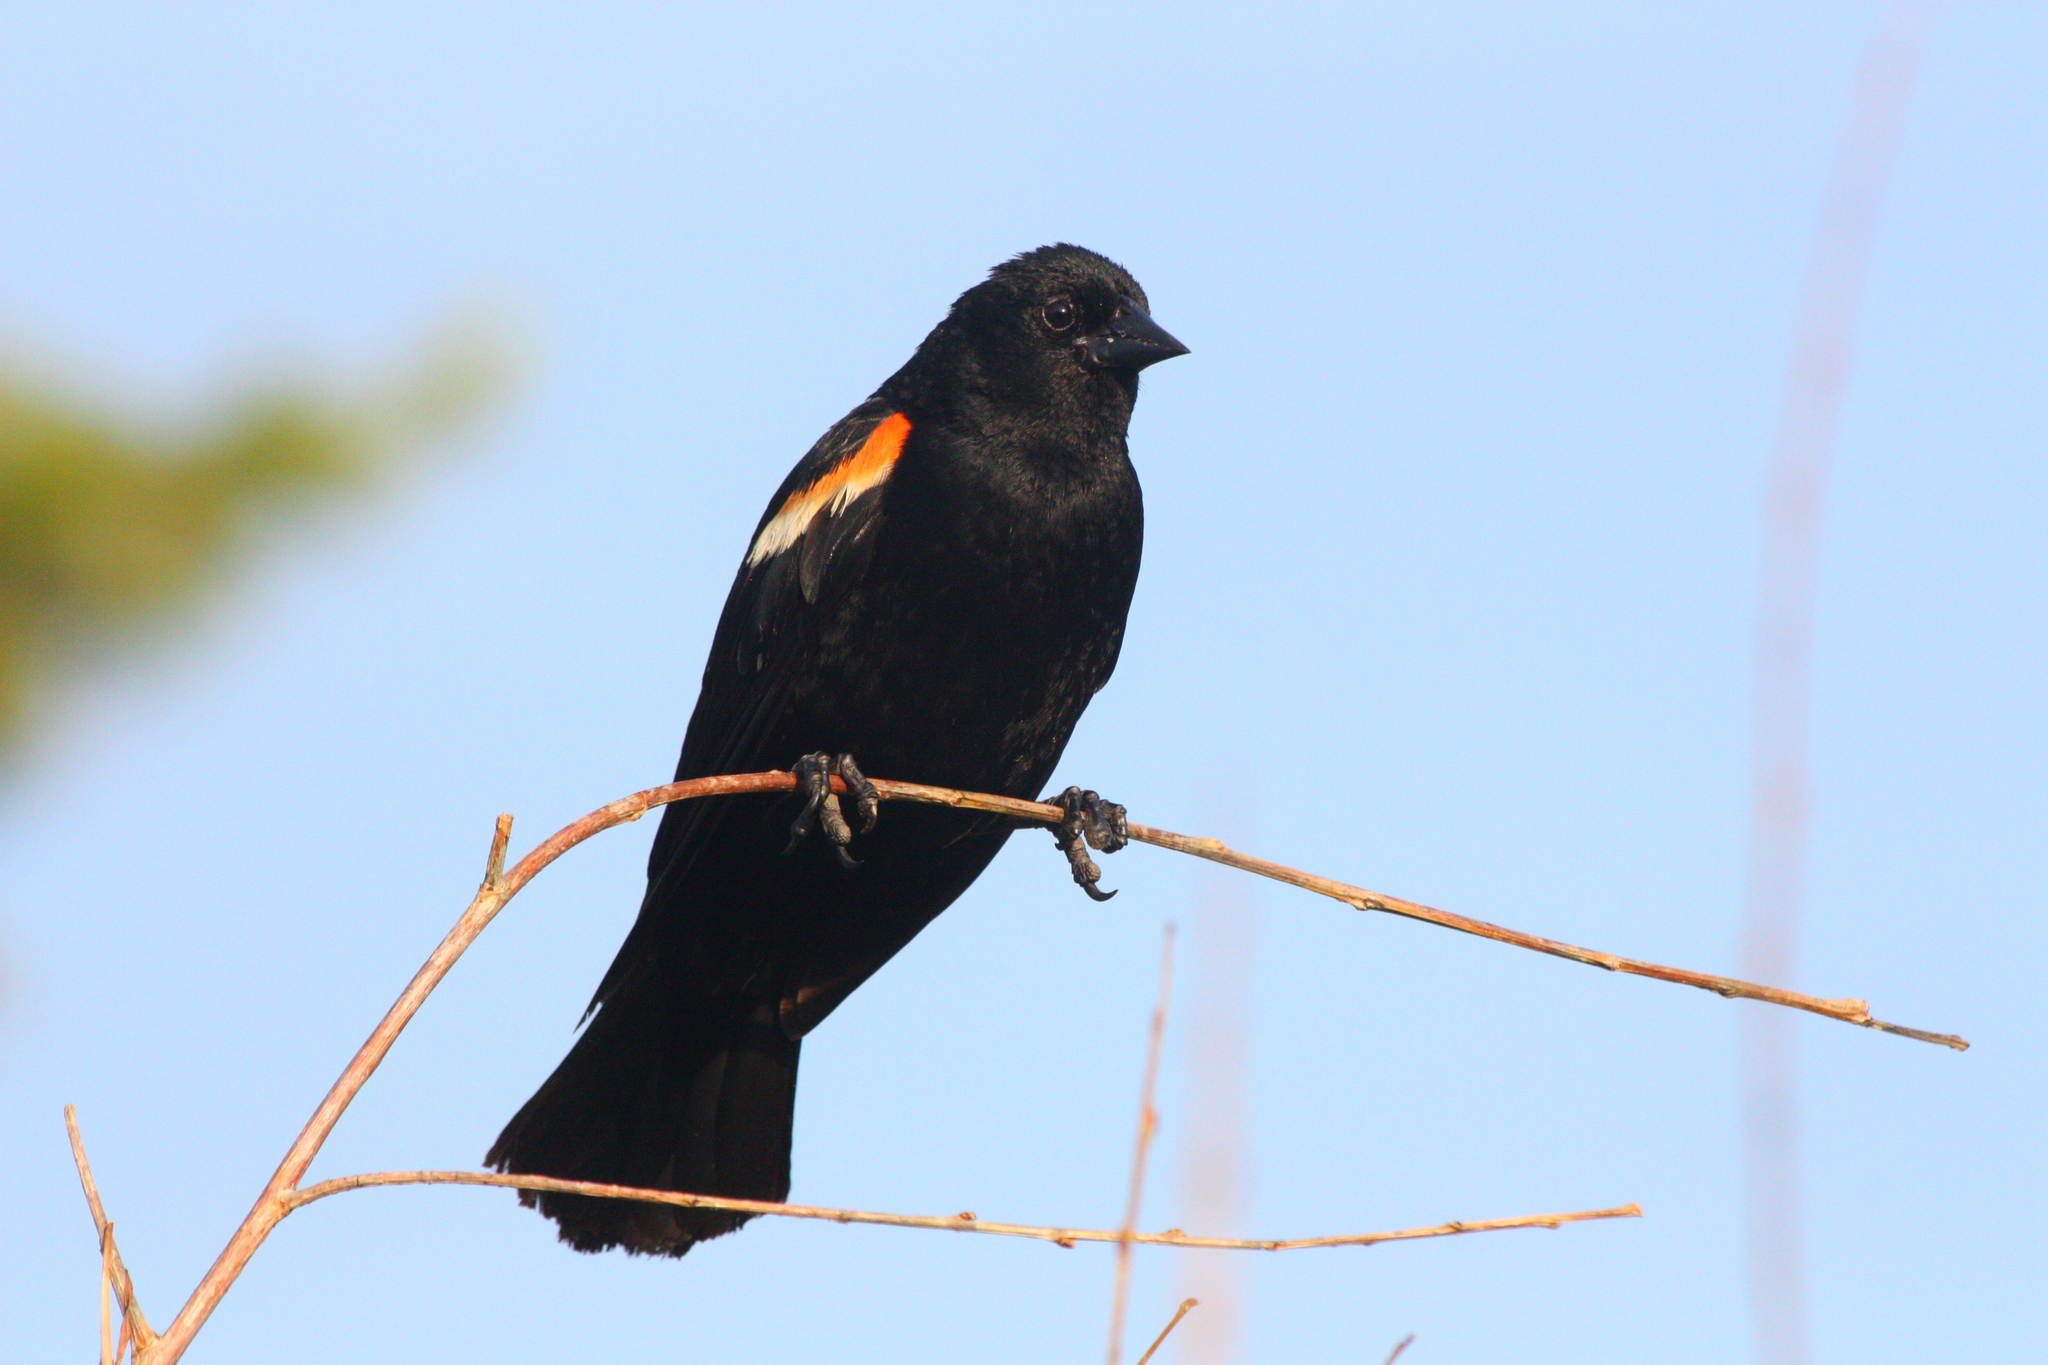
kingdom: Animalia
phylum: Chordata
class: Aves
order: Passeriformes
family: Icteridae
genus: Agelaius
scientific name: Agelaius phoeniceus
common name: Red-winged blackbird
